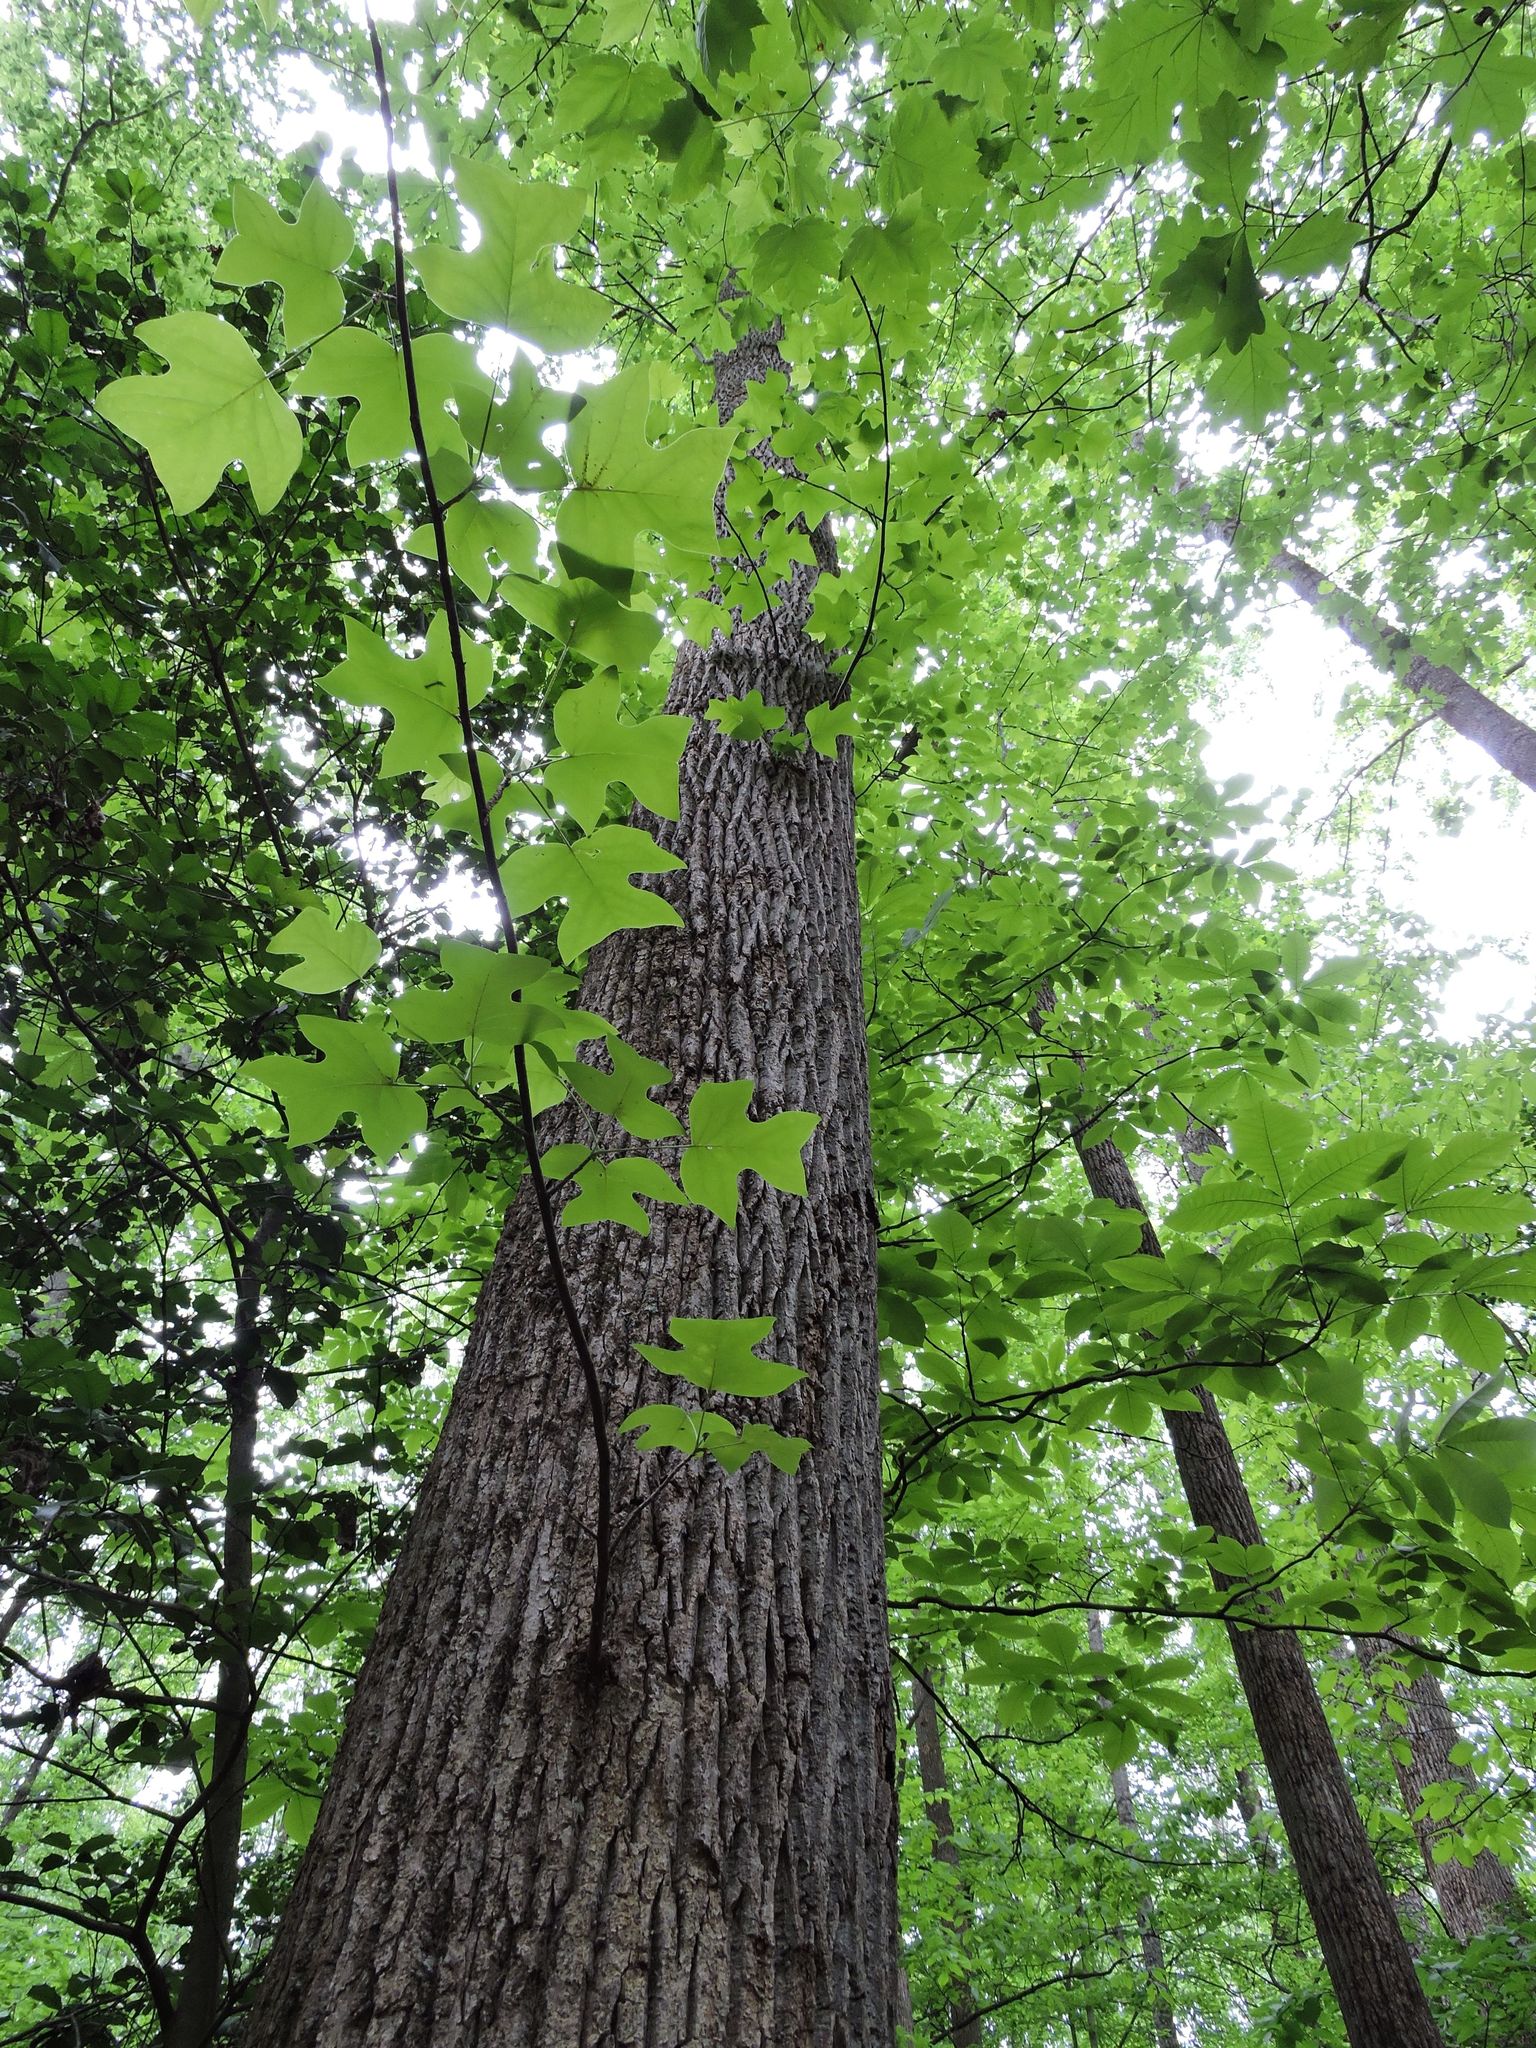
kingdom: Plantae
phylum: Tracheophyta
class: Magnoliopsida
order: Magnoliales
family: Magnoliaceae
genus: Liriodendron
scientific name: Liriodendron tulipifera
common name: Tulip tree
